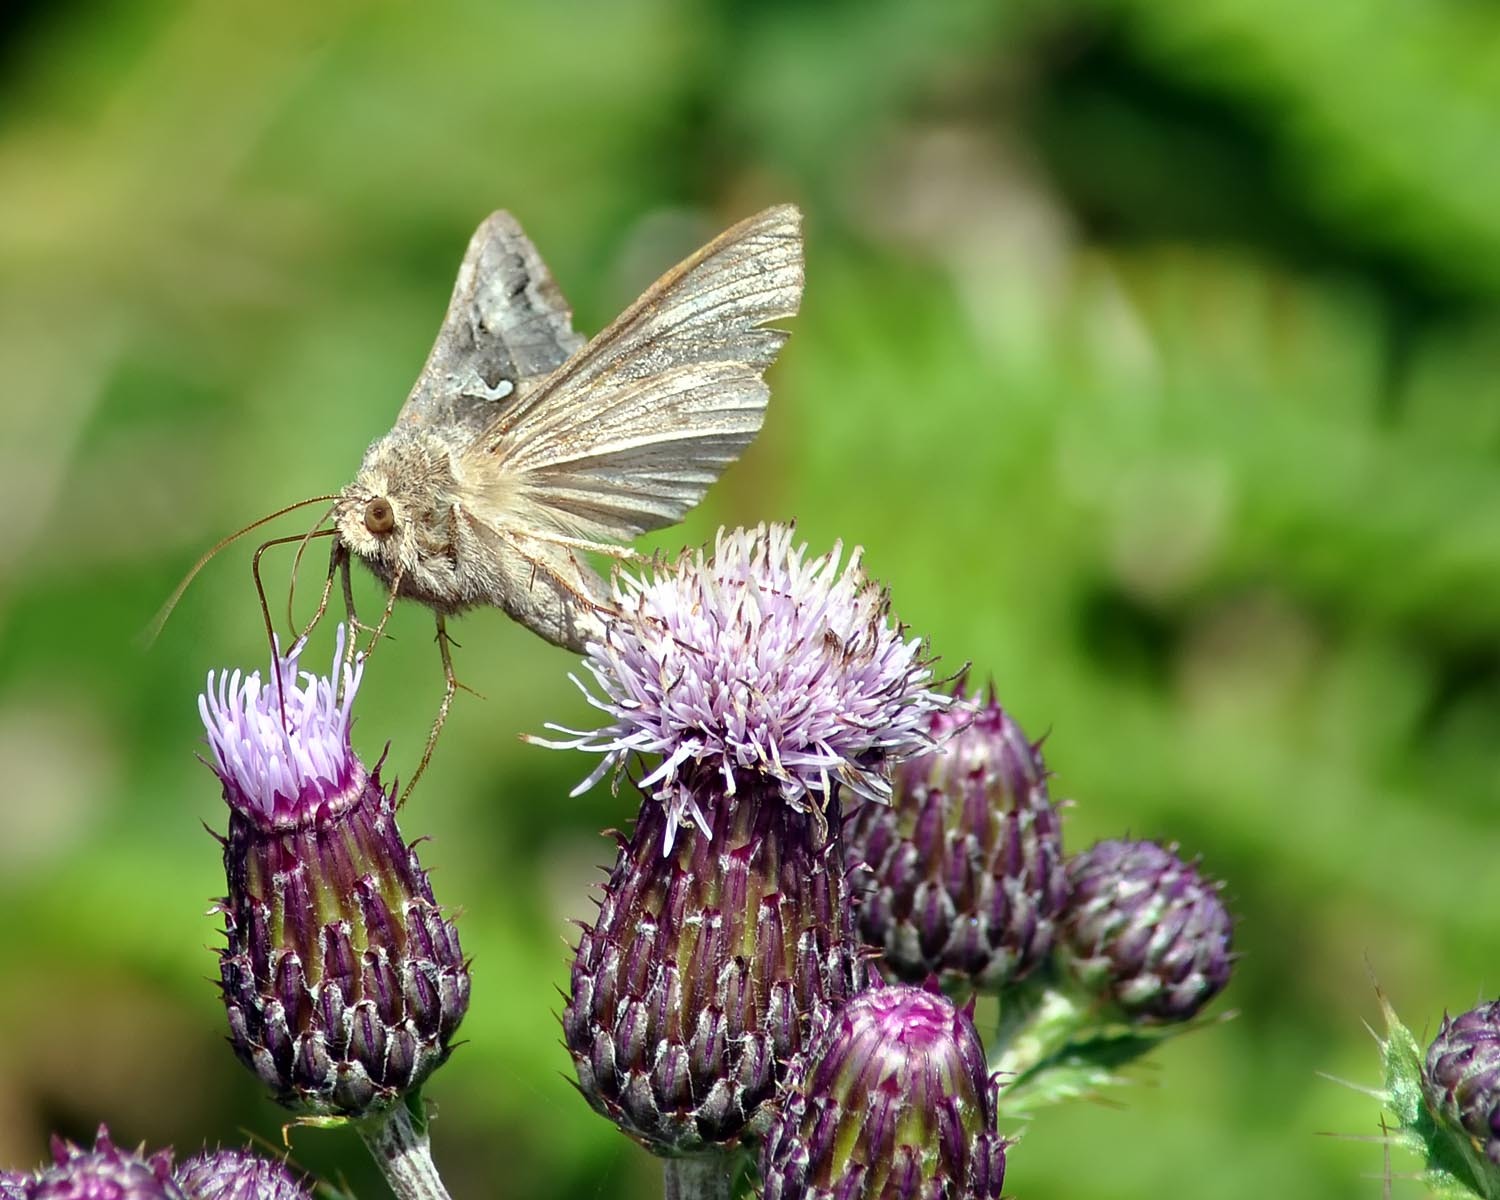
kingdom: Animalia
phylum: Arthropoda
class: Insecta
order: Lepidoptera
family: Noctuidae
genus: Autographa
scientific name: Autographa gamma
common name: Silver y
